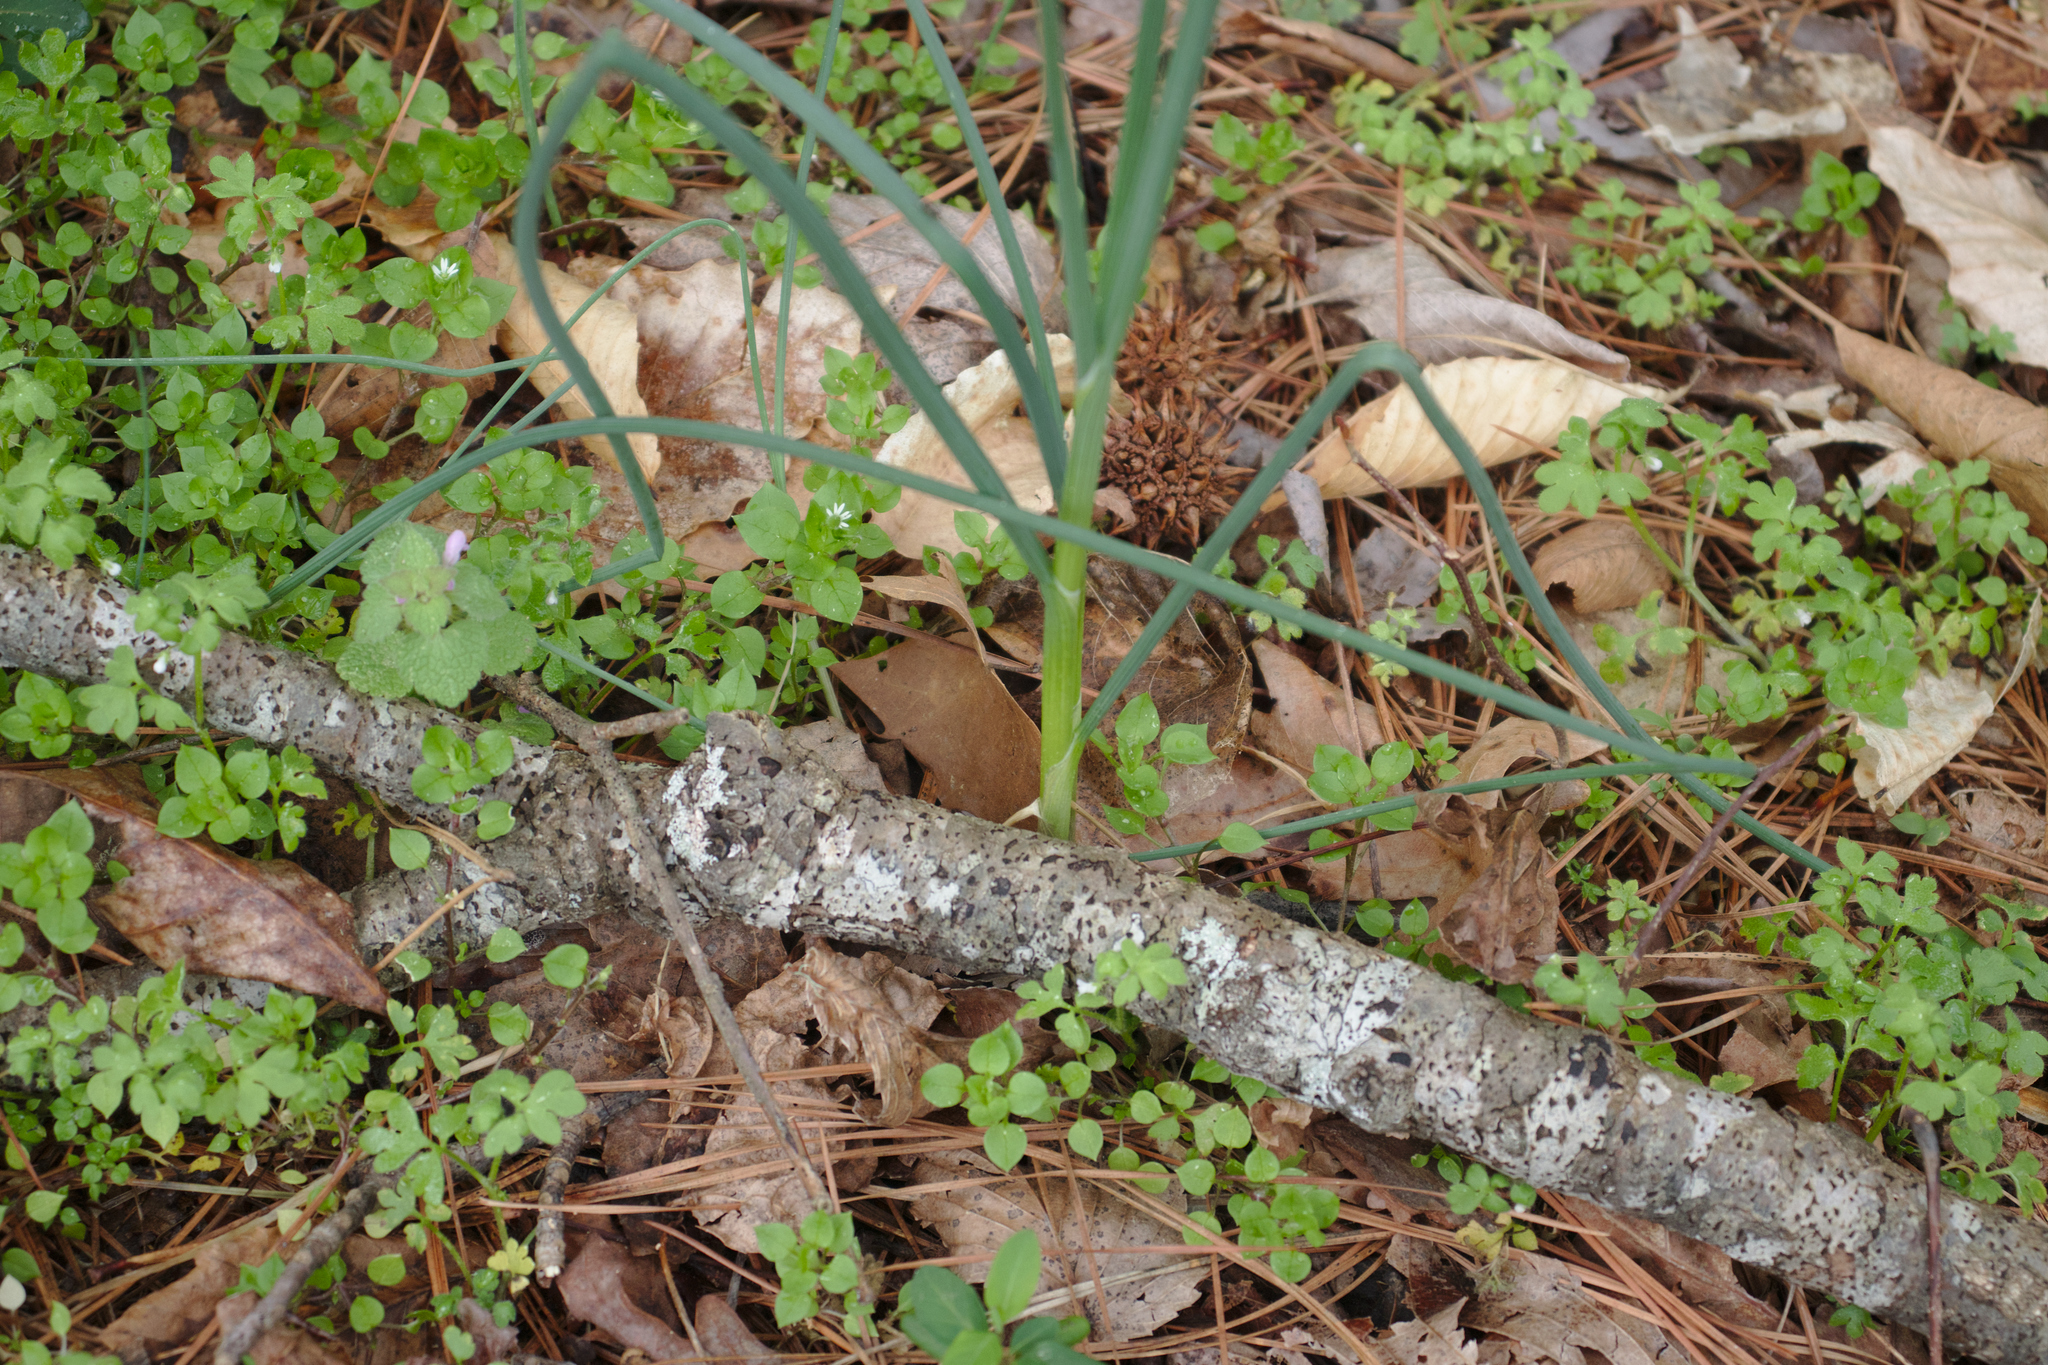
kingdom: Plantae
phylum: Tracheophyta
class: Liliopsida
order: Asparagales
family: Amaryllidaceae
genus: Allium
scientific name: Allium vineale
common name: Crow garlic
